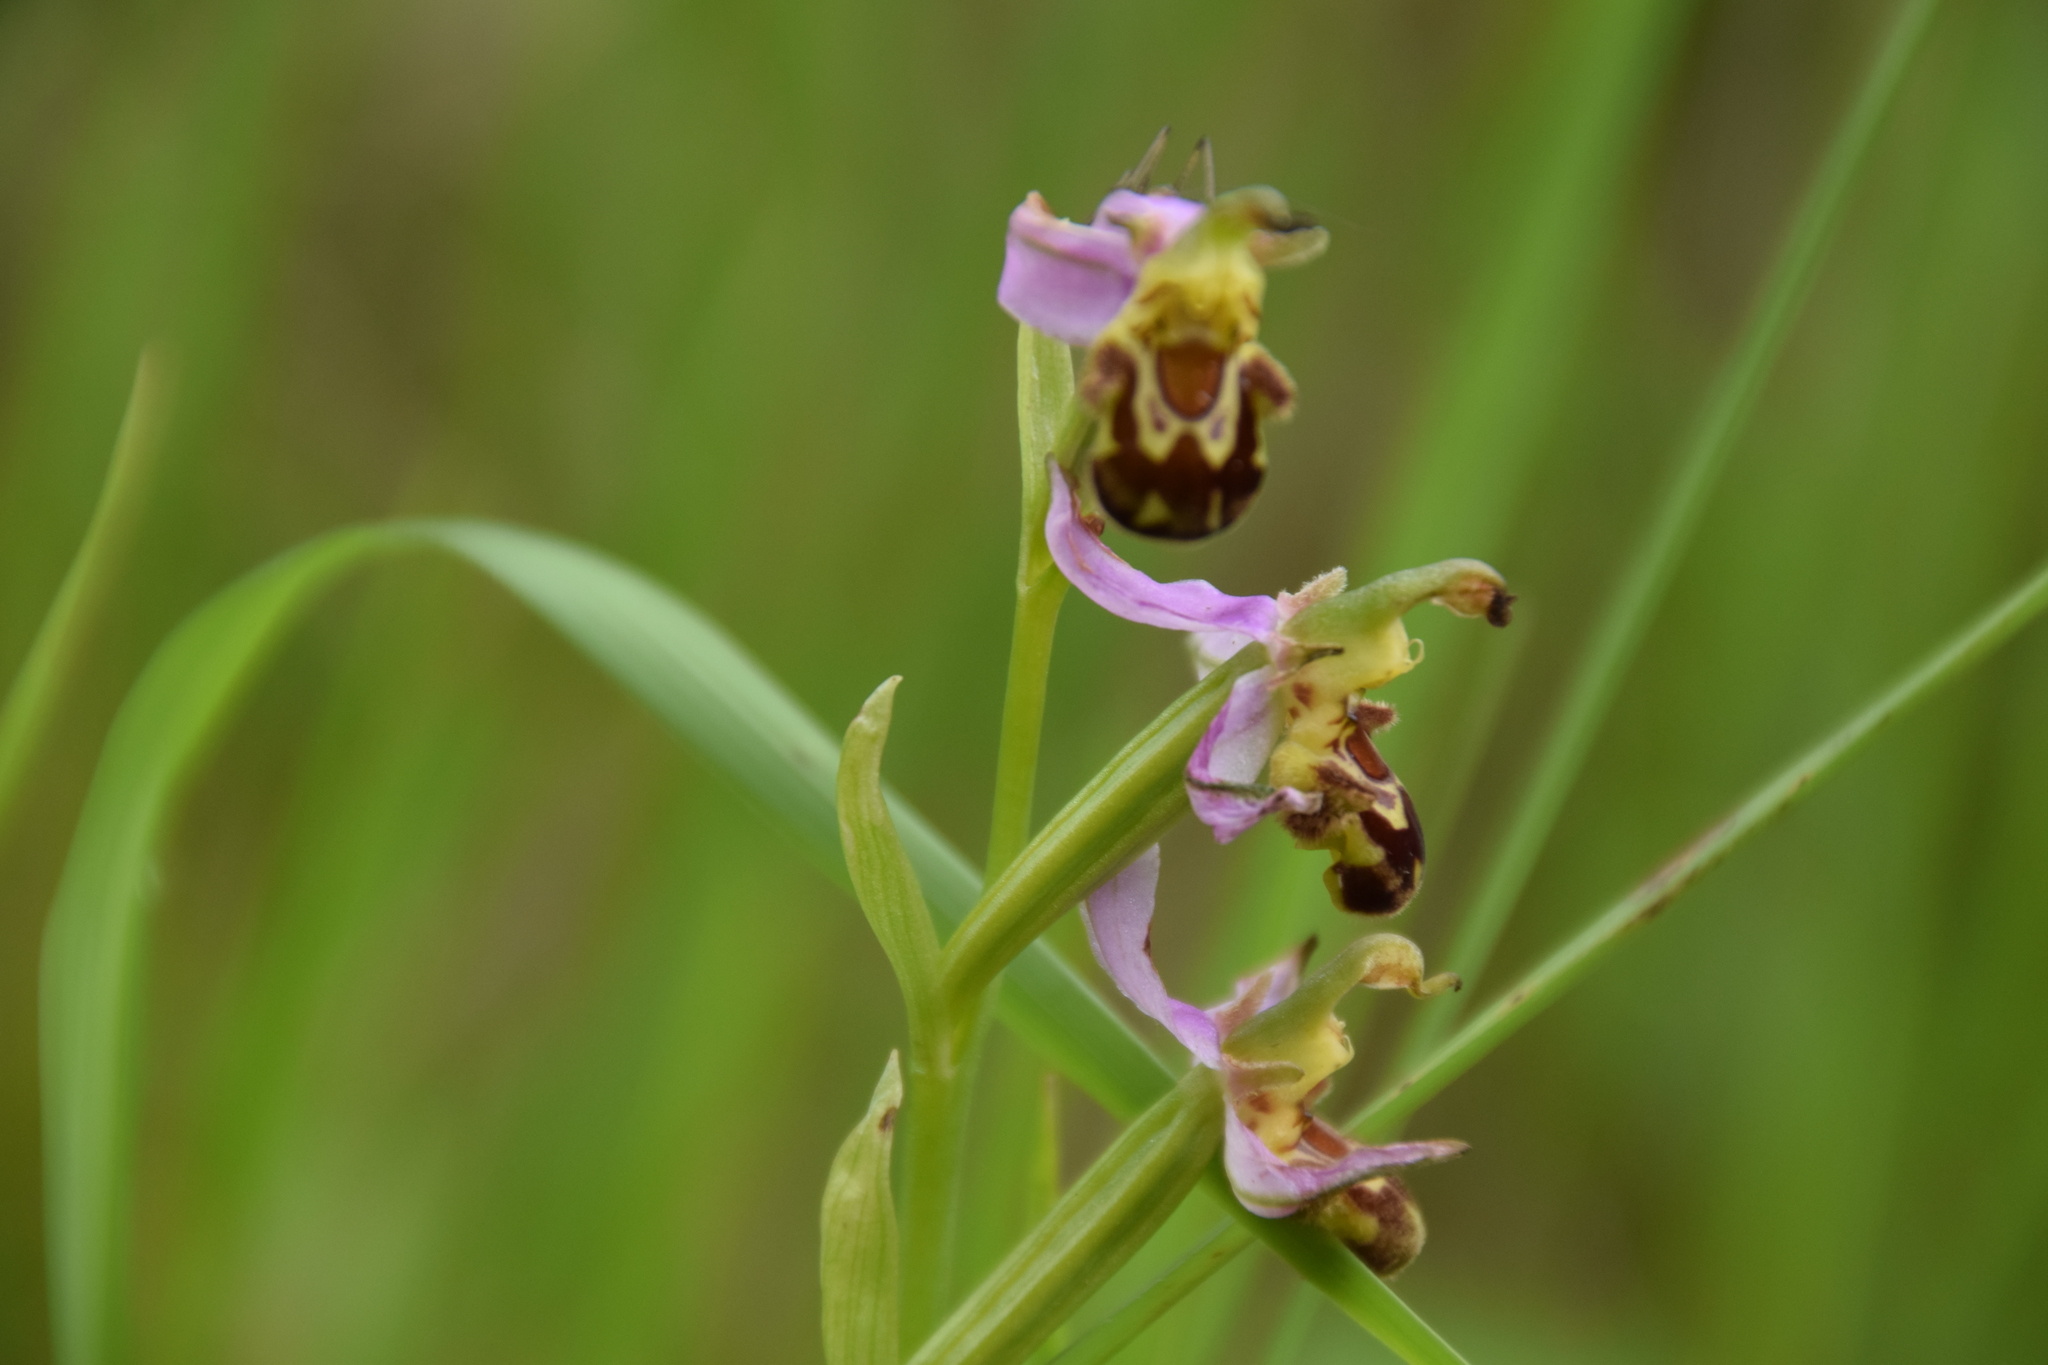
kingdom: Plantae
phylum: Tracheophyta
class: Liliopsida
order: Asparagales
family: Orchidaceae
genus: Ophrys
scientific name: Ophrys apifera
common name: Bee orchid
